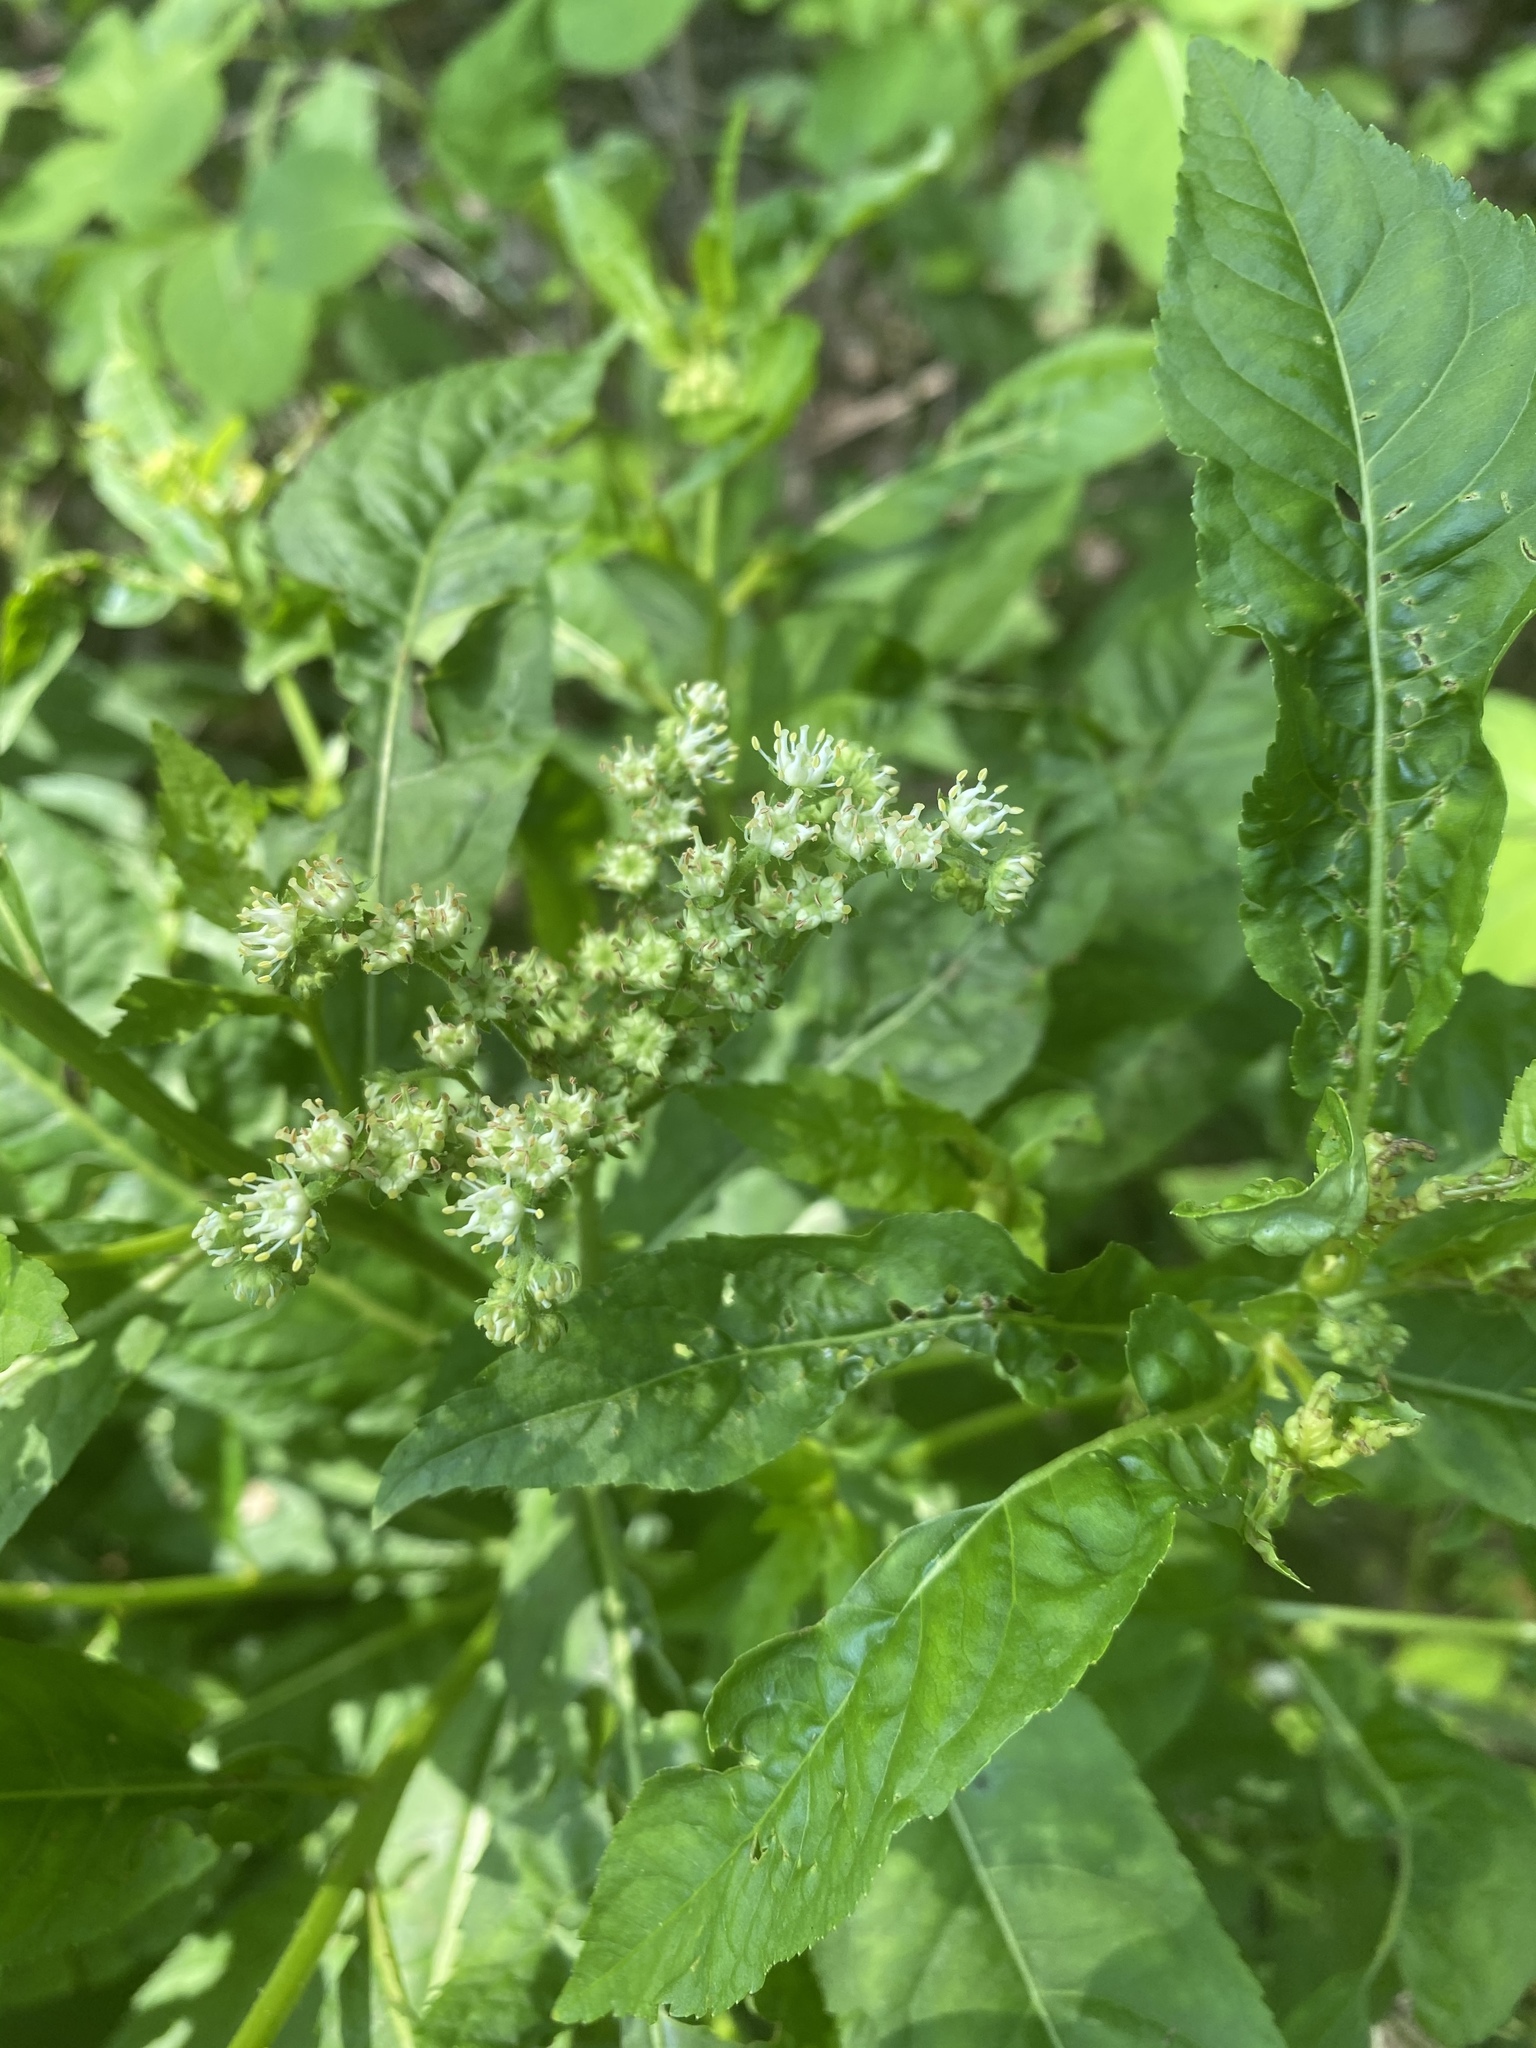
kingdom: Plantae
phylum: Tracheophyta
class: Magnoliopsida
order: Saxifragales
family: Penthoraceae
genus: Penthorum
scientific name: Penthorum sedoides
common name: Ditch stonecrop
